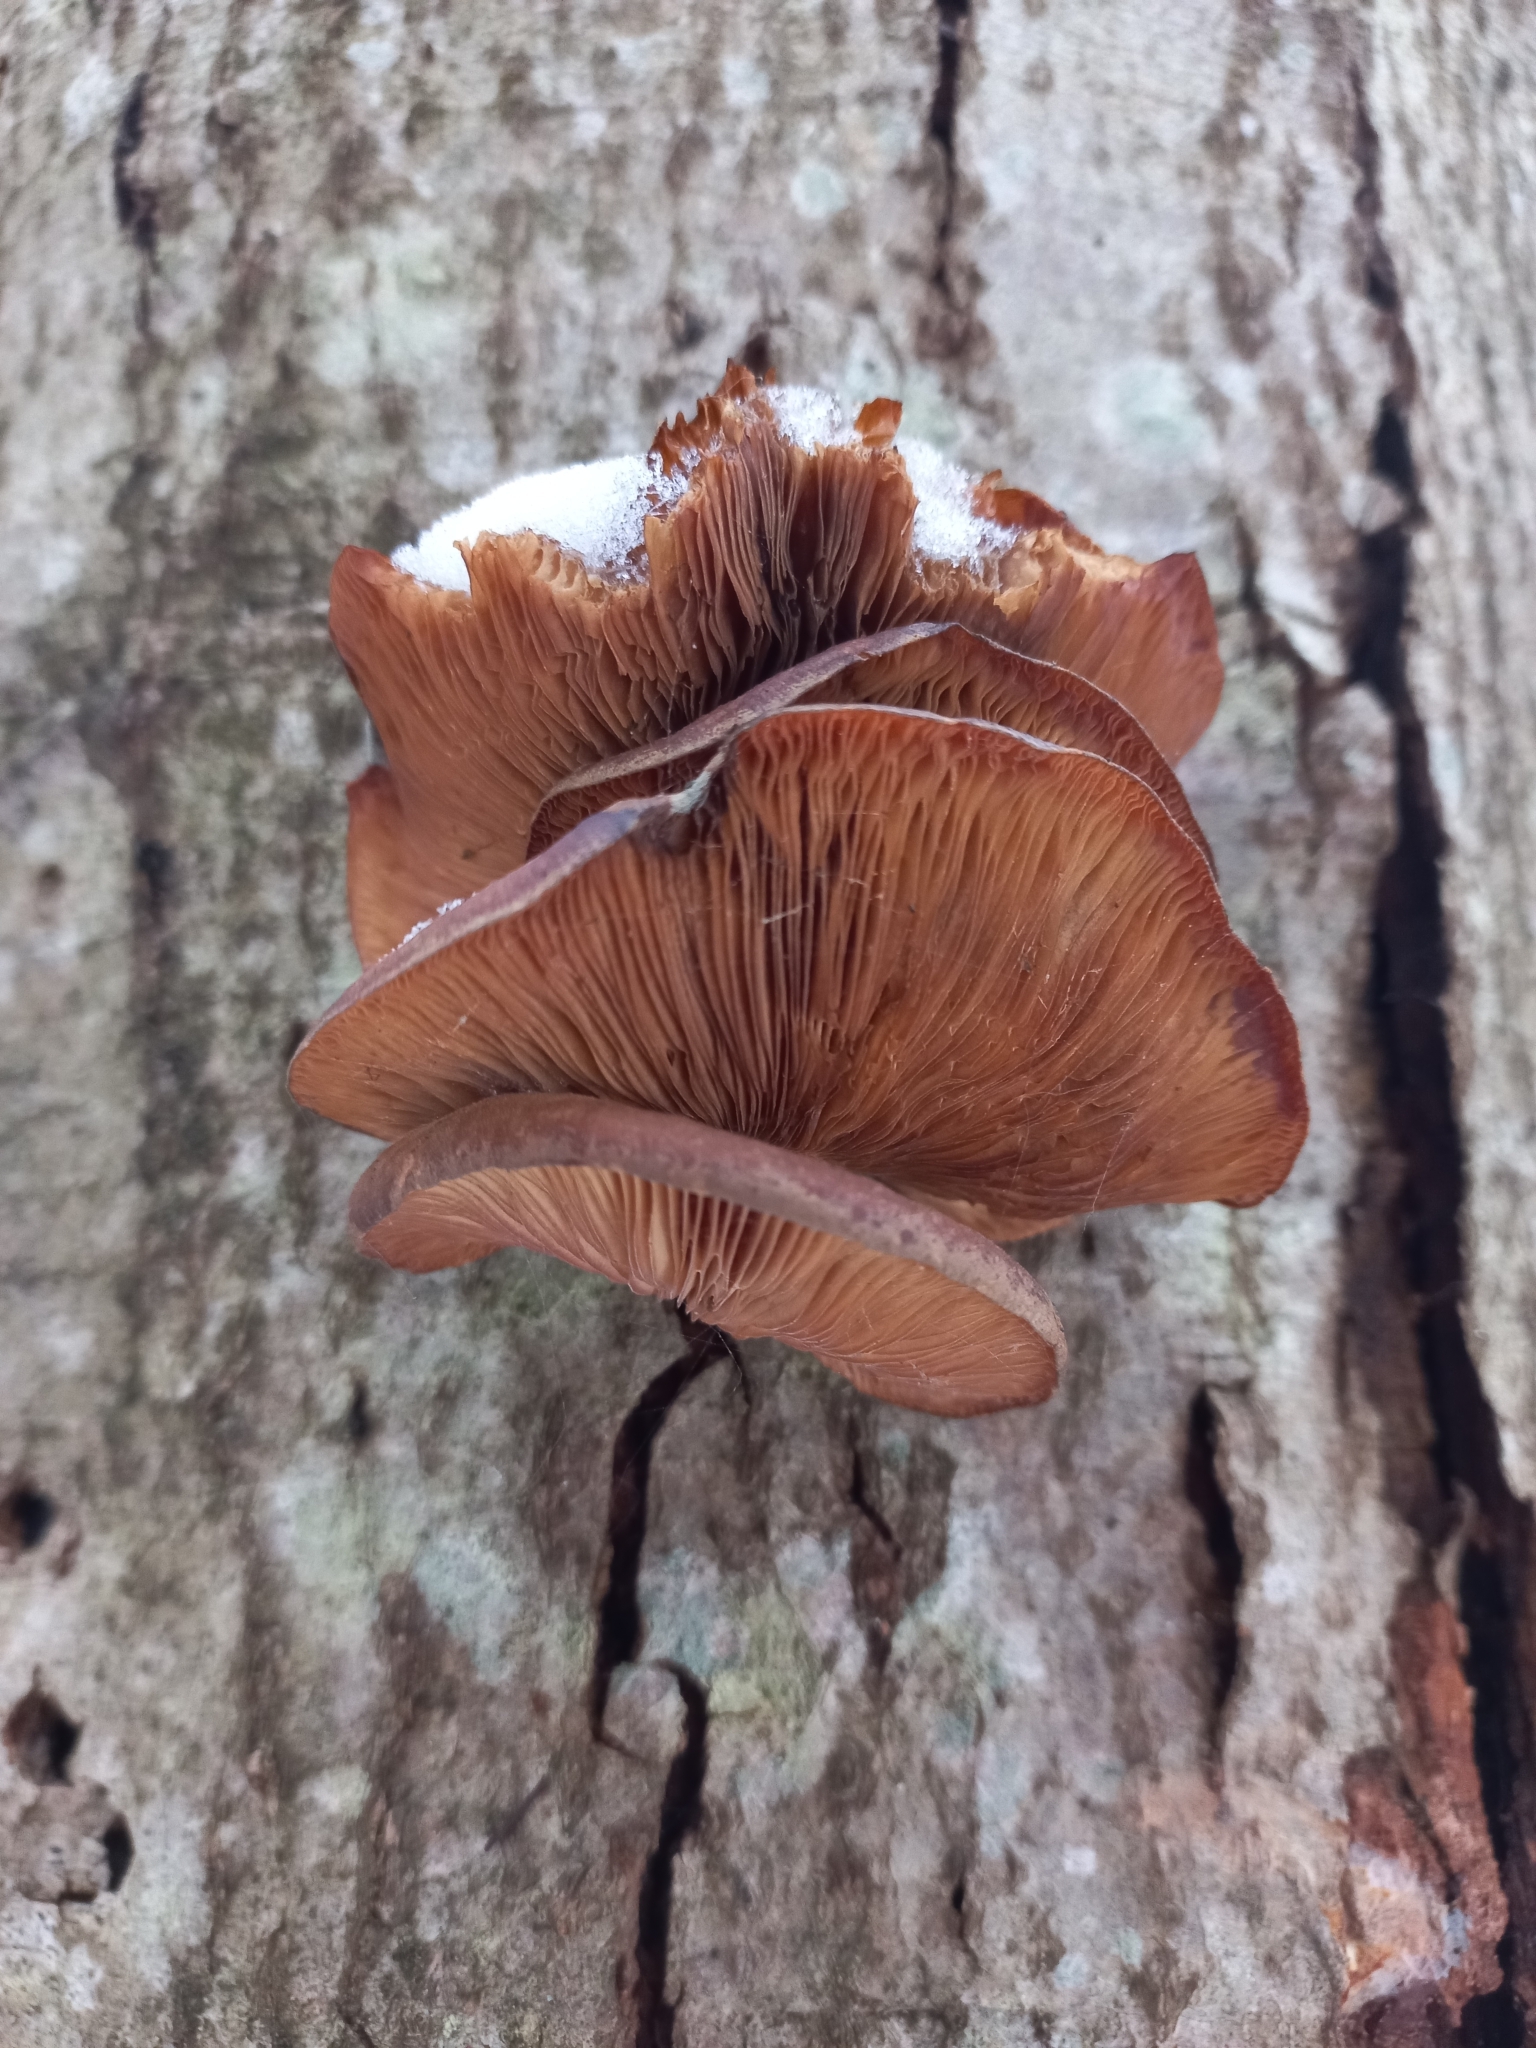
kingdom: Fungi
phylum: Basidiomycota
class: Agaricomycetes
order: Agaricales
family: Sarcomyxaceae
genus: Sarcomyxa
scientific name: Sarcomyxa serotina
